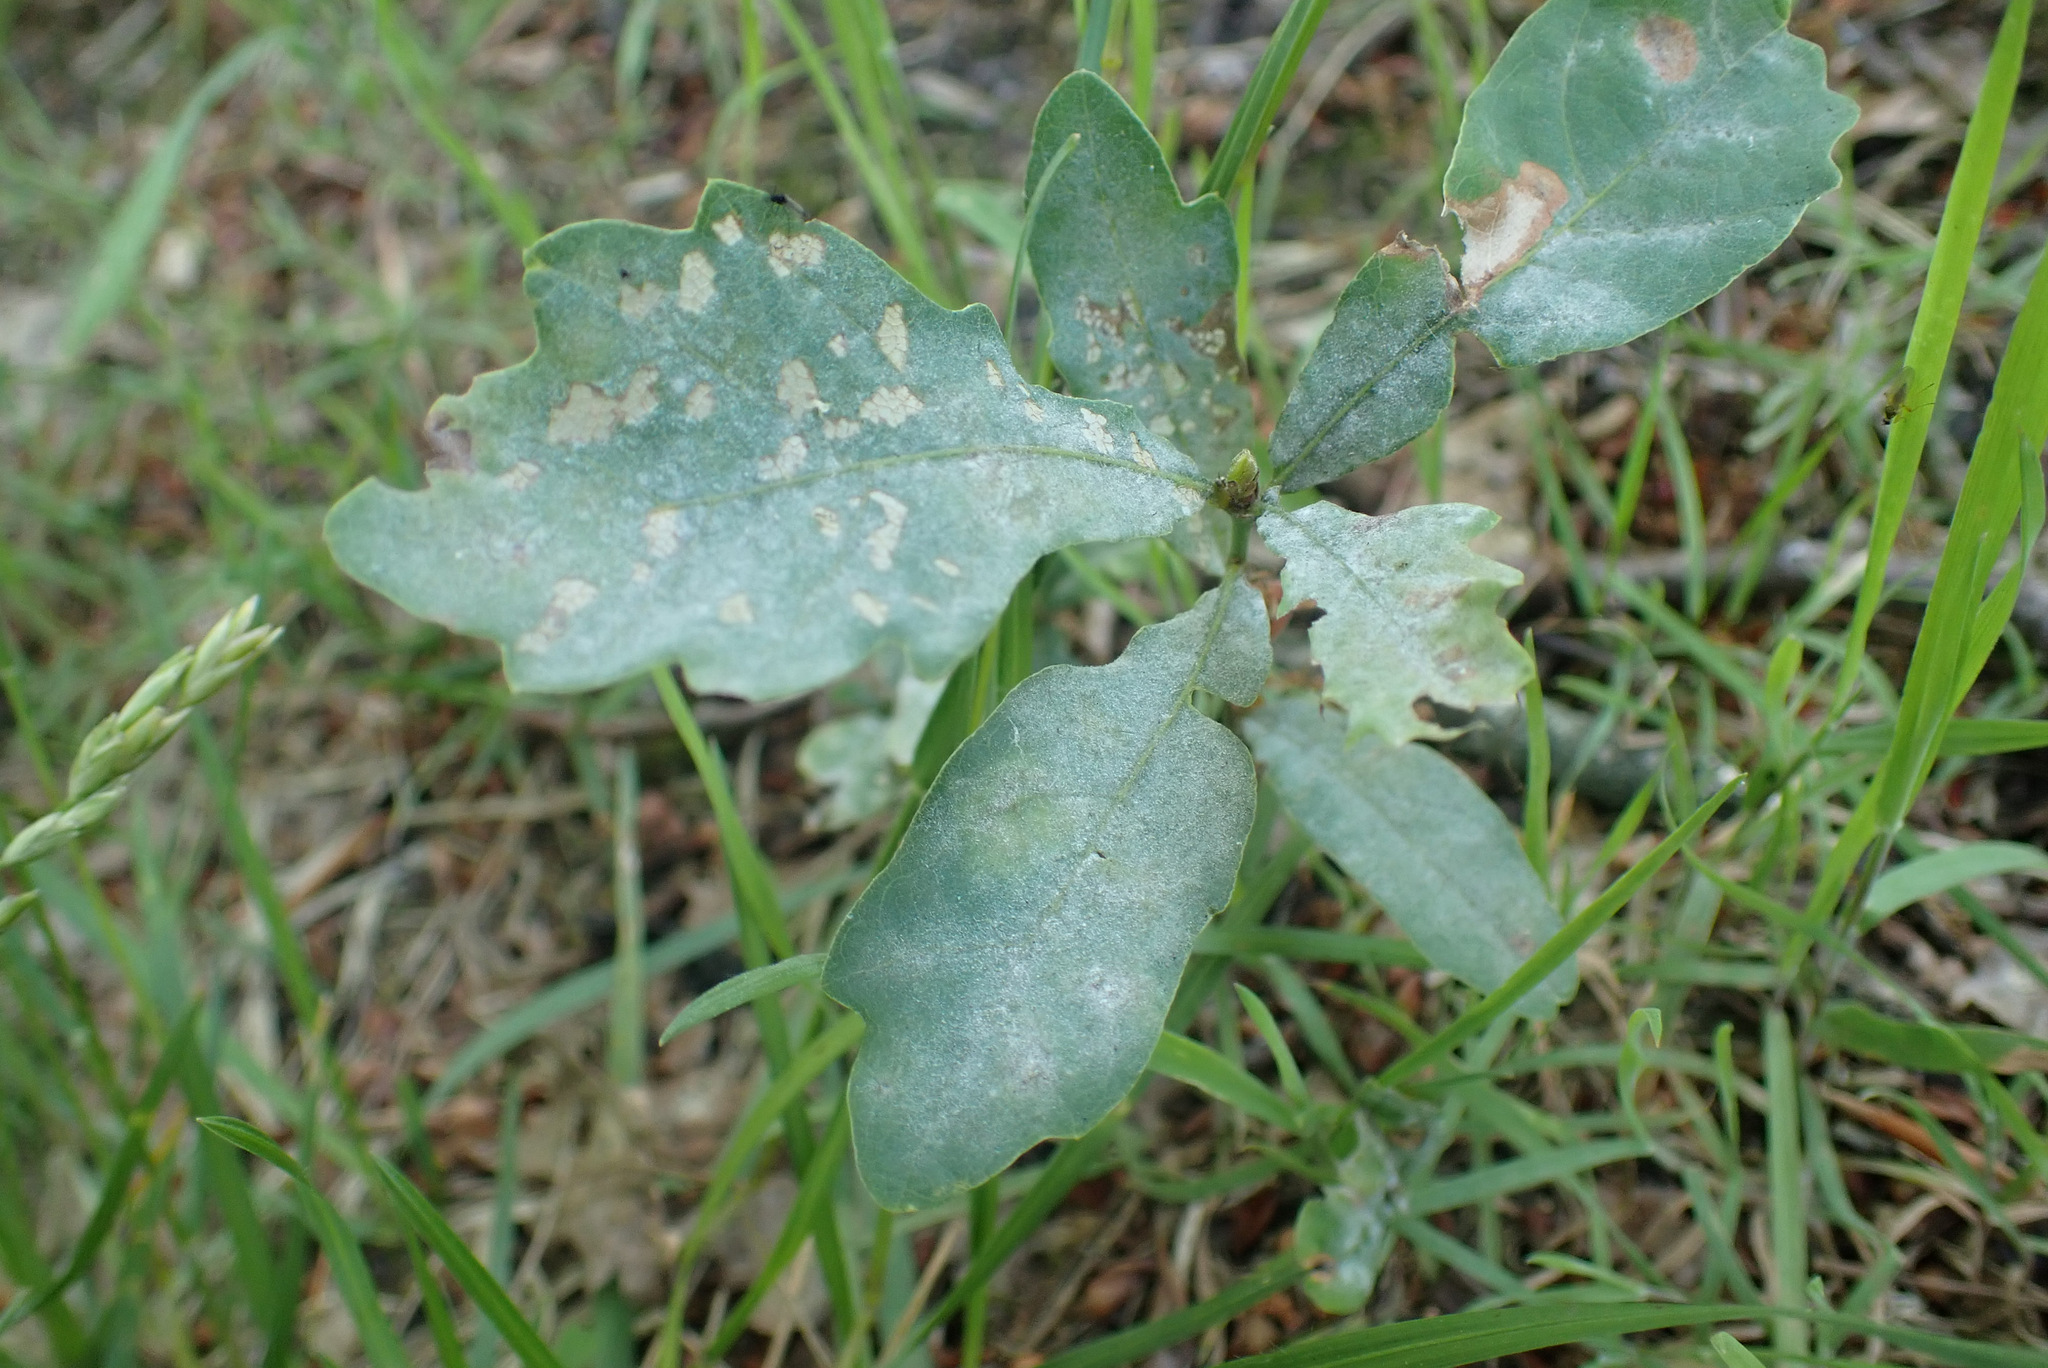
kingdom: Fungi
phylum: Ascomycota
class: Leotiomycetes
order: Helotiales
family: Erysiphaceae
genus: Erysiphe
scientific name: Erysiphe
